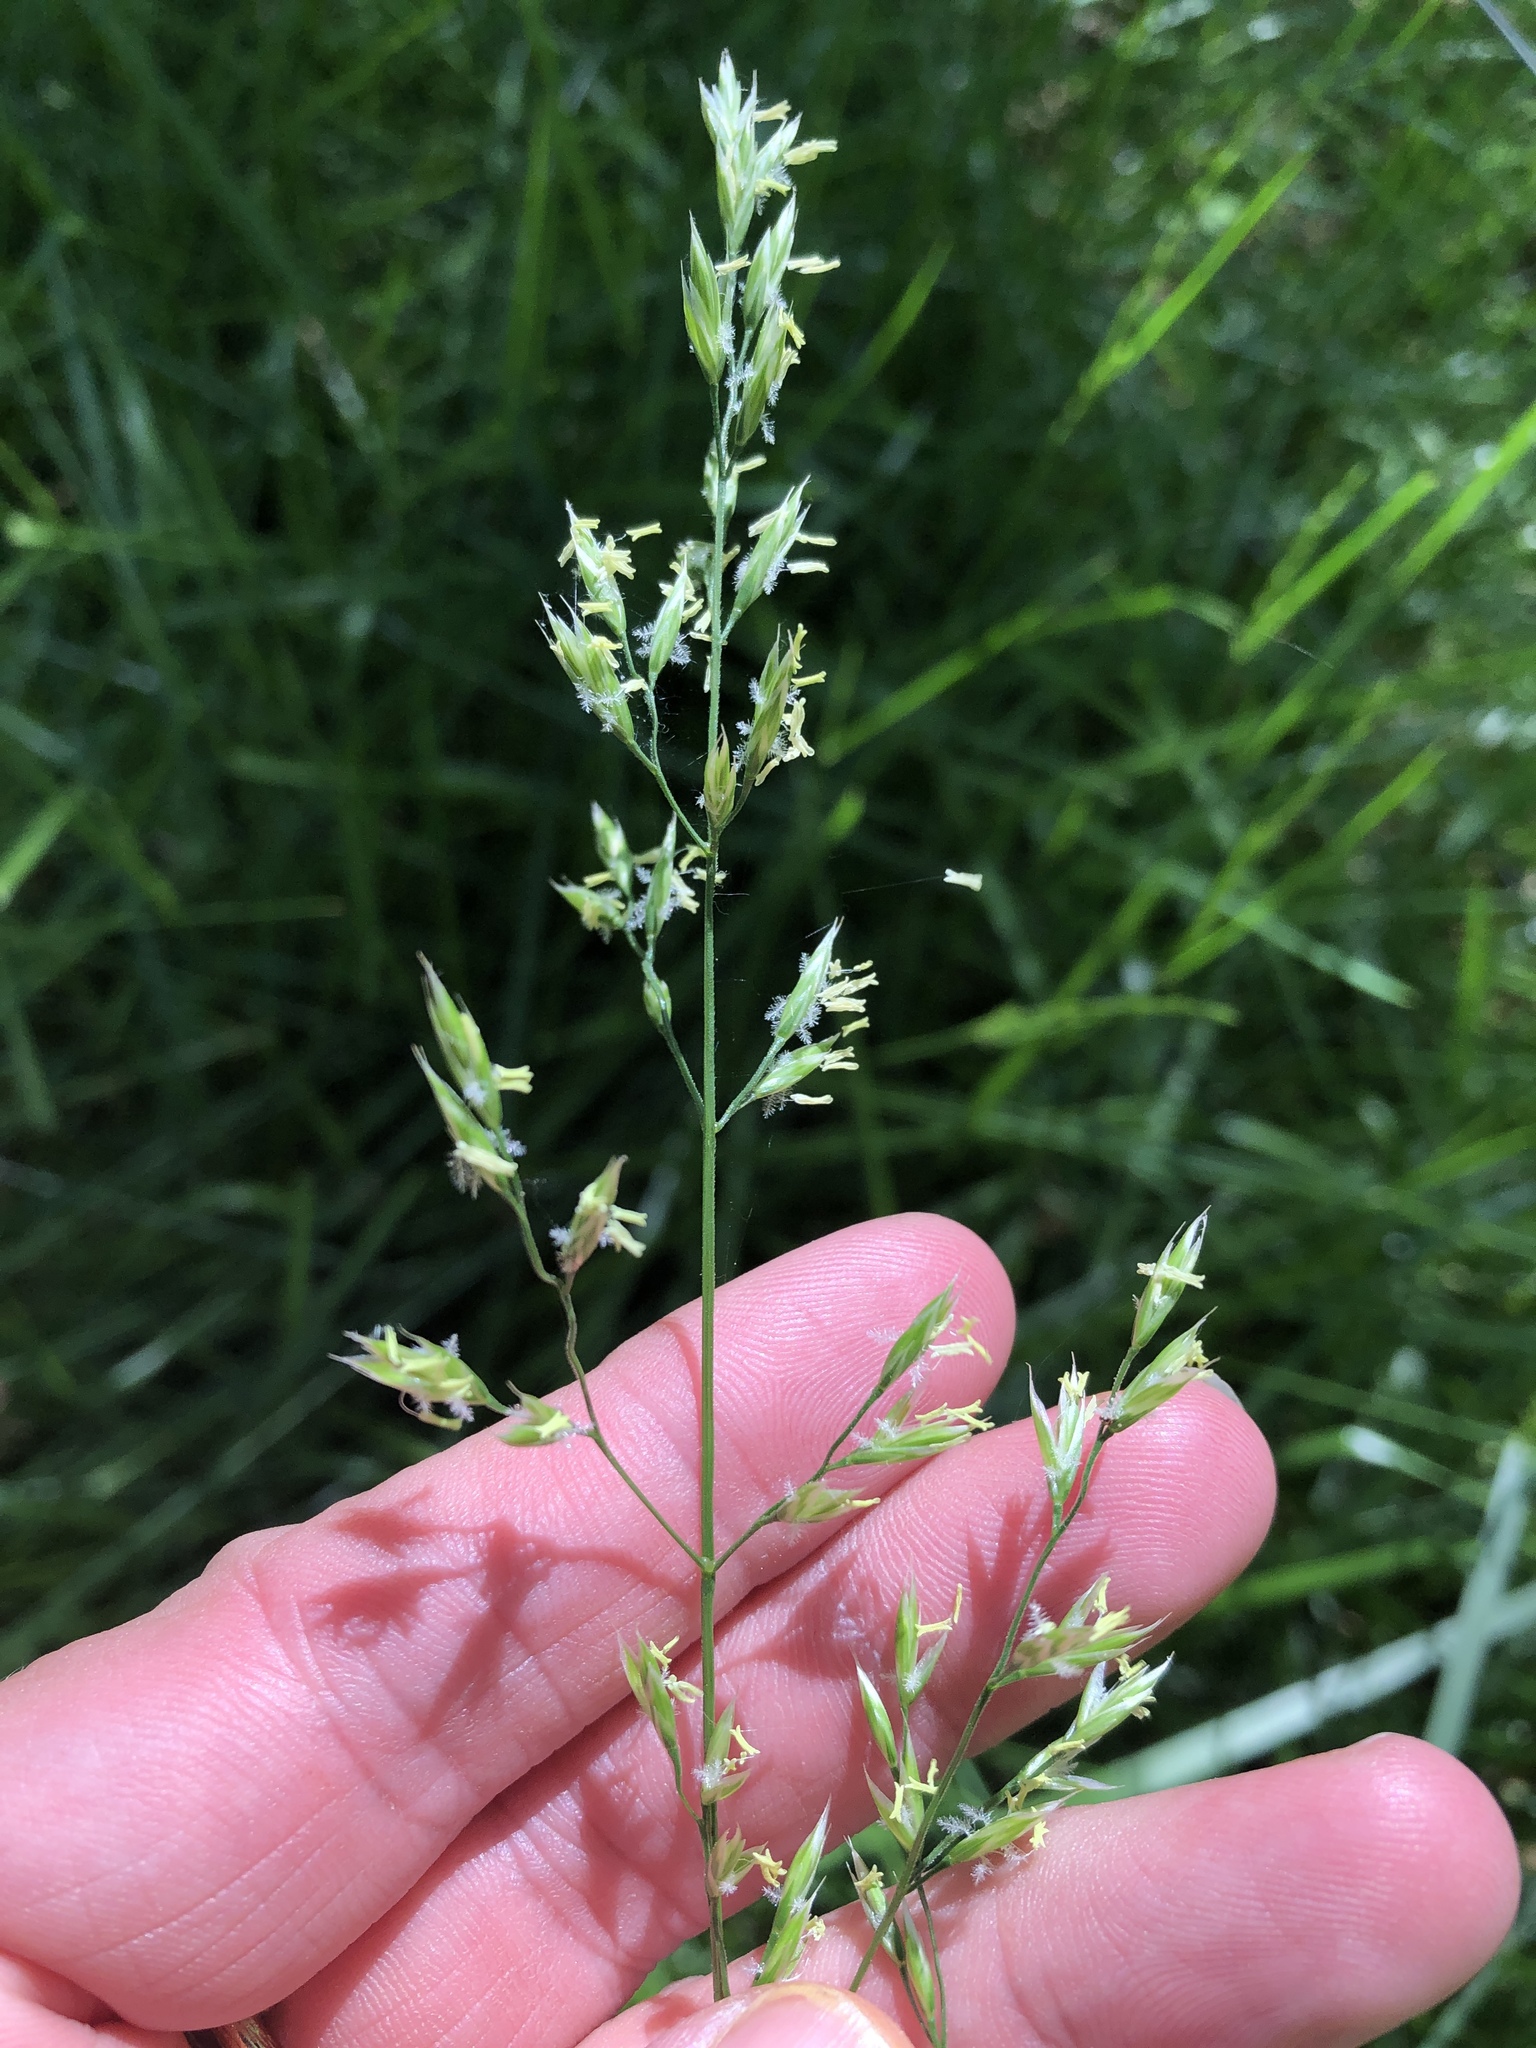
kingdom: Plantae
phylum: Tracheophyta
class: Liliopsida
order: Poales
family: Poaceae
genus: Lolium
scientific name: Lolium arundinaceum
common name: Reed fescue
